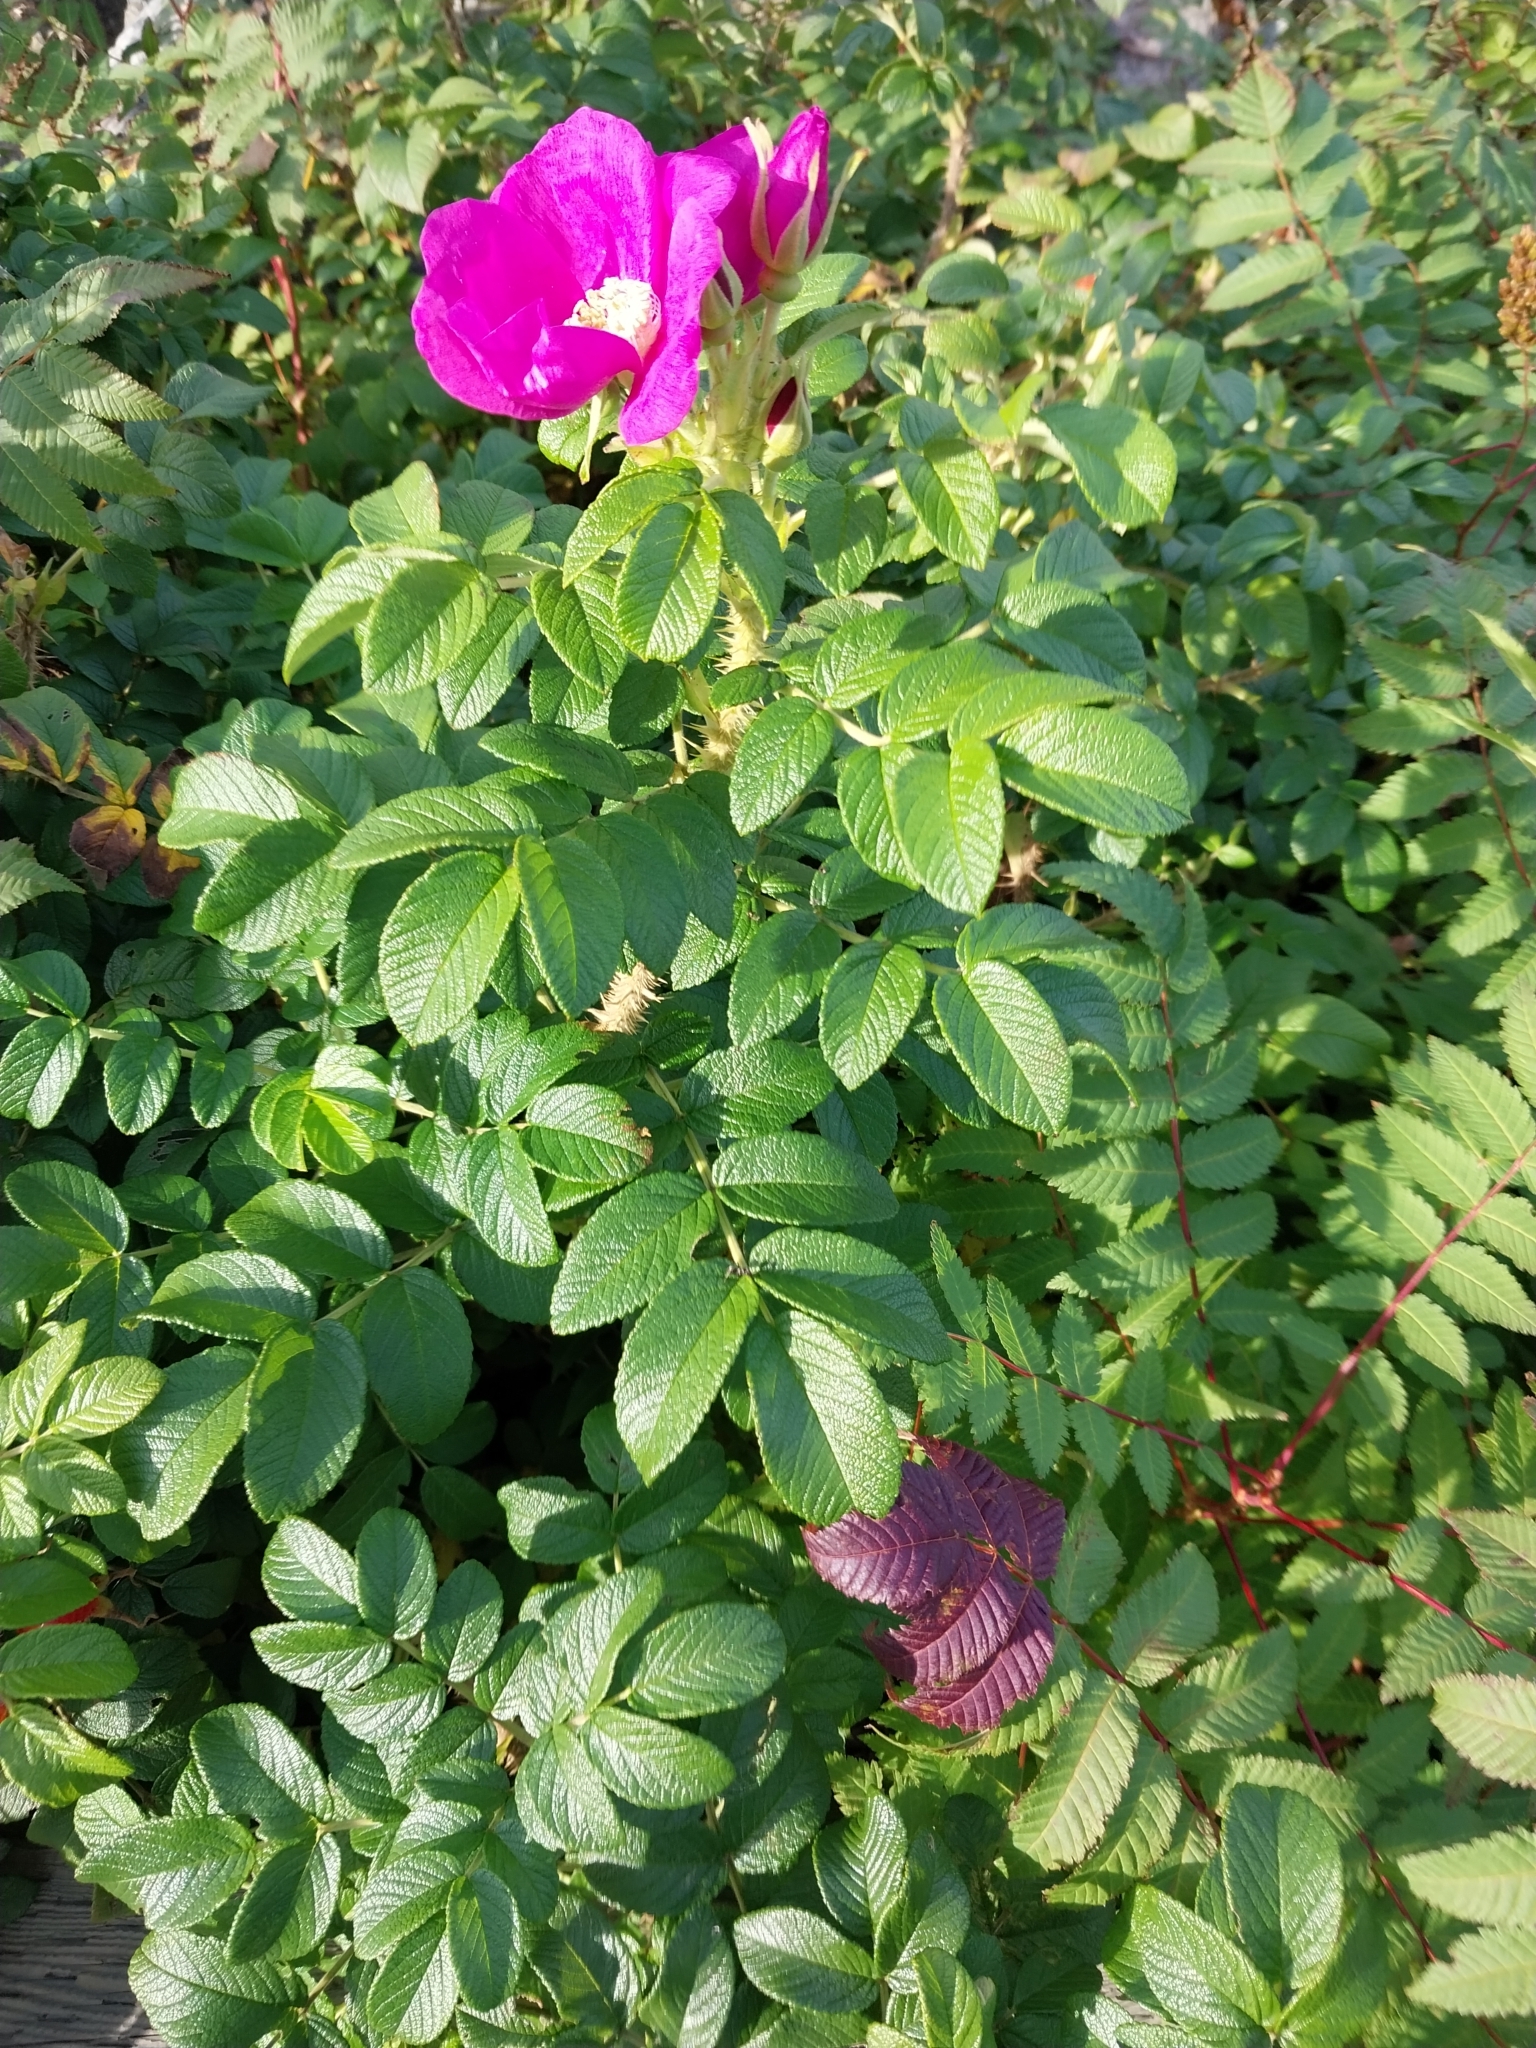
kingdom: Plantae
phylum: Tracheophyta
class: Magnoliopsida
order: Rosales
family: Rosaceae
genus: Rosa
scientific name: Rosa rugosa
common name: Japanese rose
